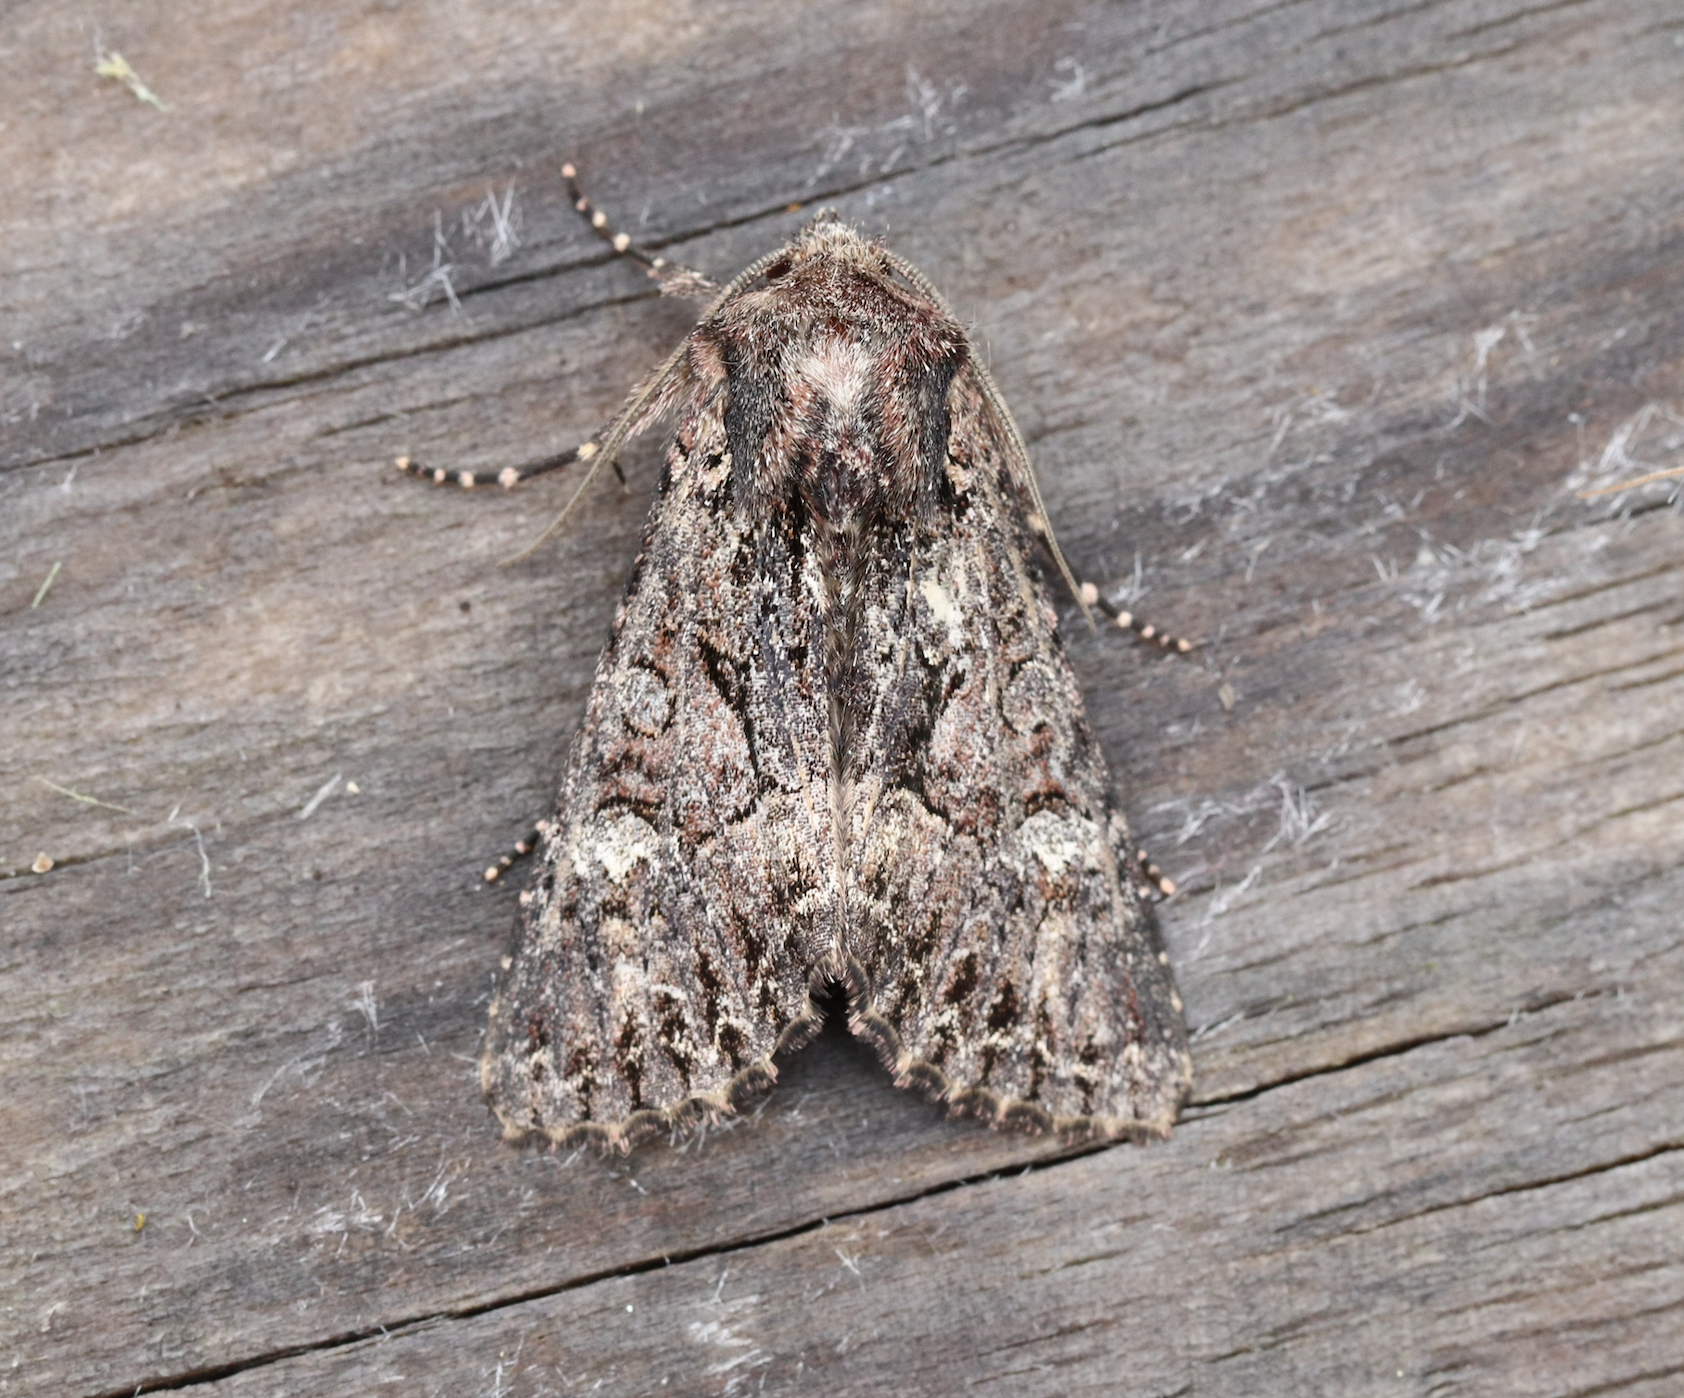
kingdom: Animalia
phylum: Arthropoda
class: Insecta
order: Lepidoptera
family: Noctuidae
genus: Mniotype
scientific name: Mniotype adusta
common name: Dark brocade
